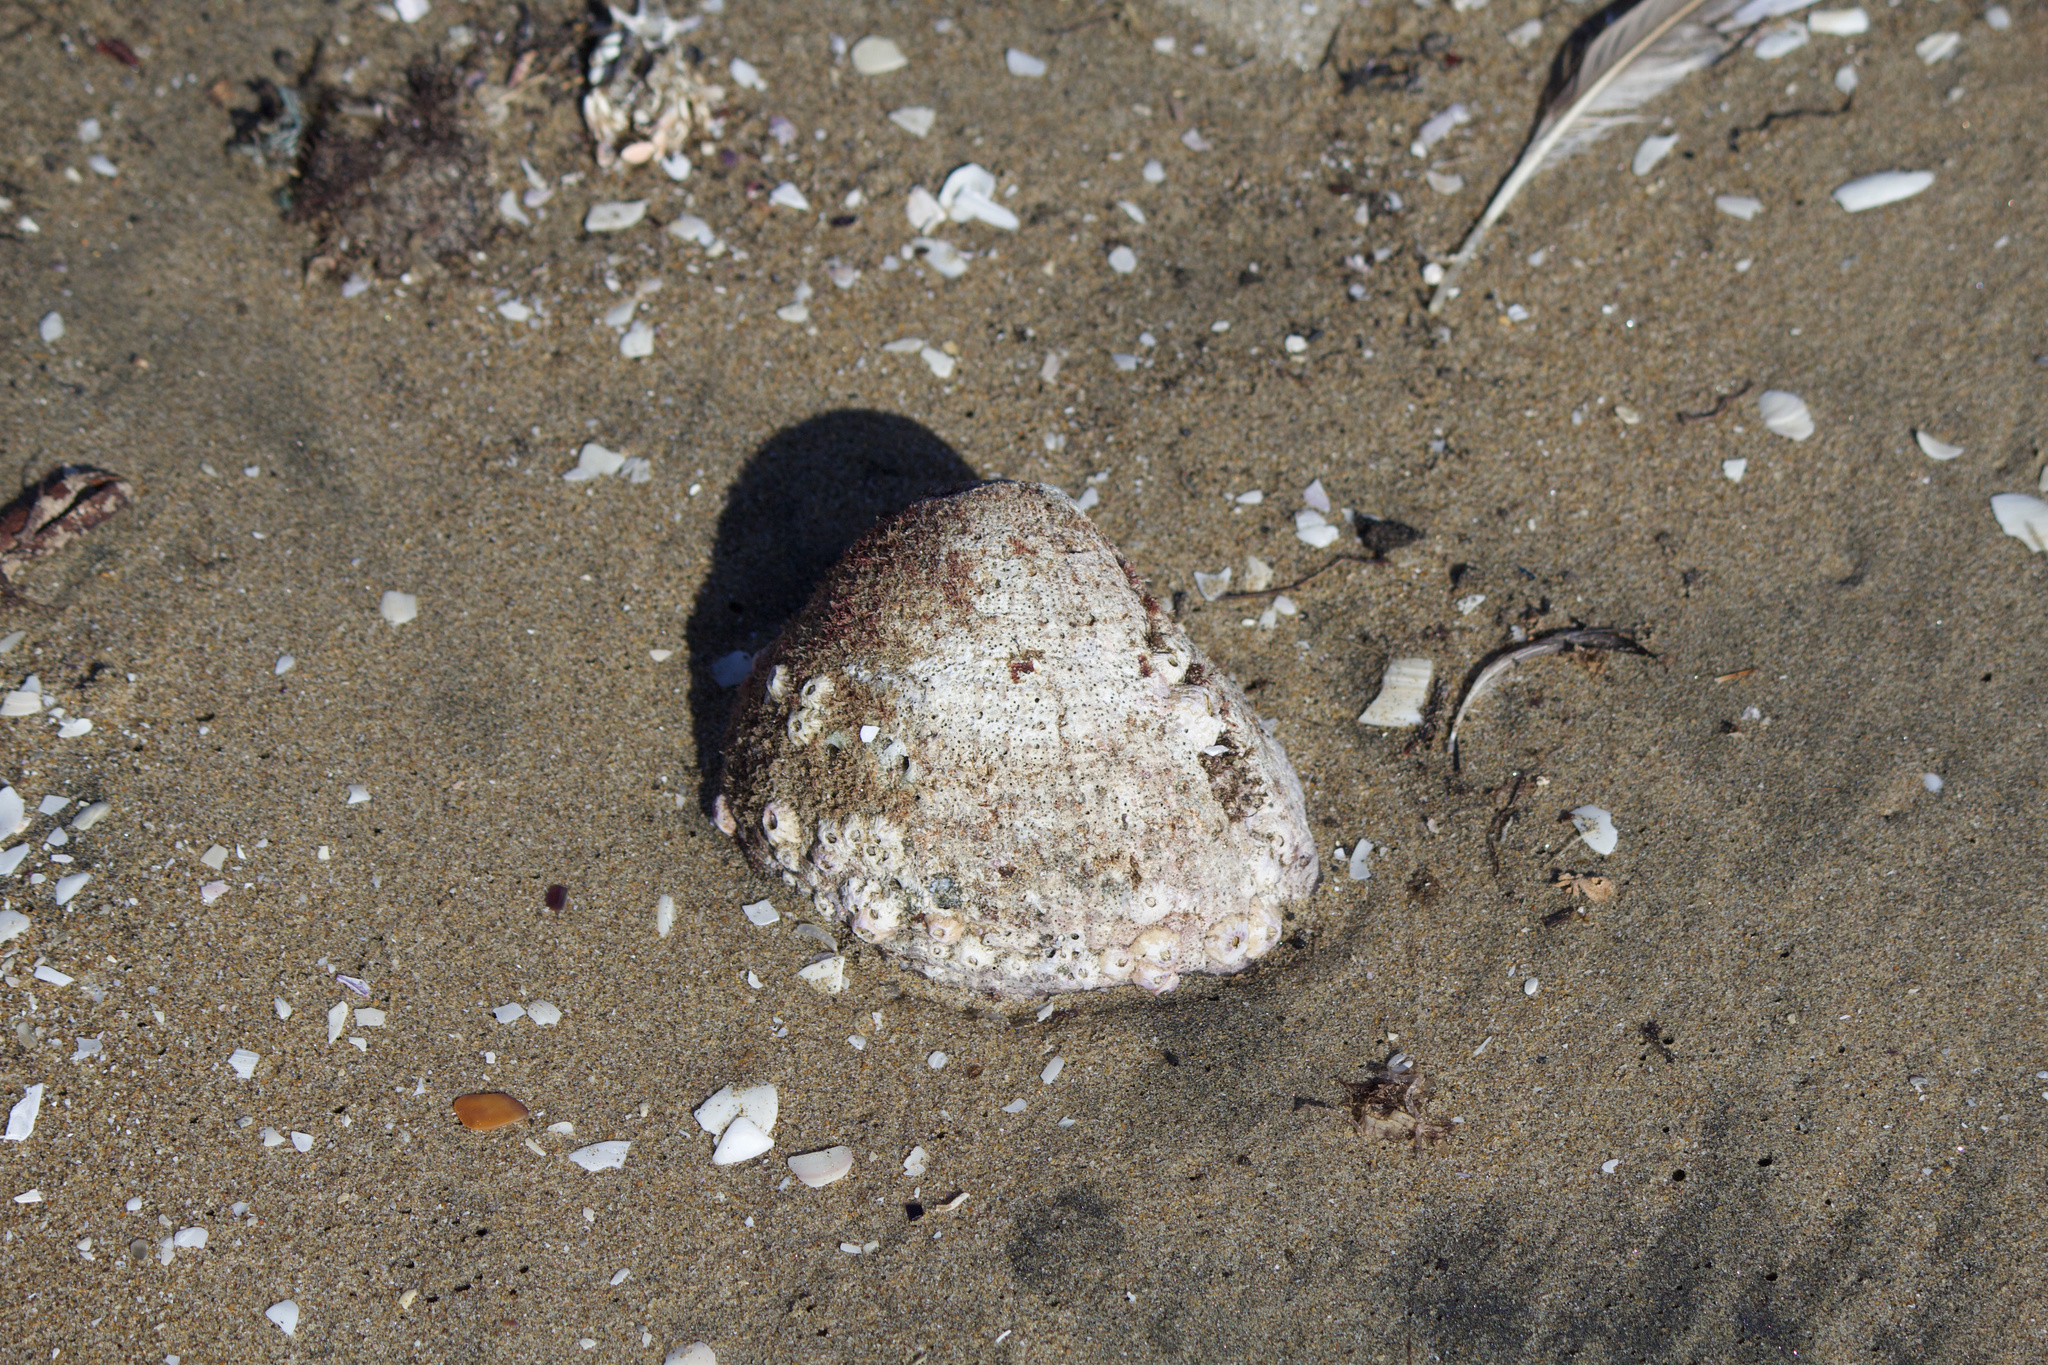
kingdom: Animalia
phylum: Mollusca
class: Gastropoda
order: Neogastropoda
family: Muricidae
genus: Concholepas
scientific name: Concholepas concholepas
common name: Chilean abalone
